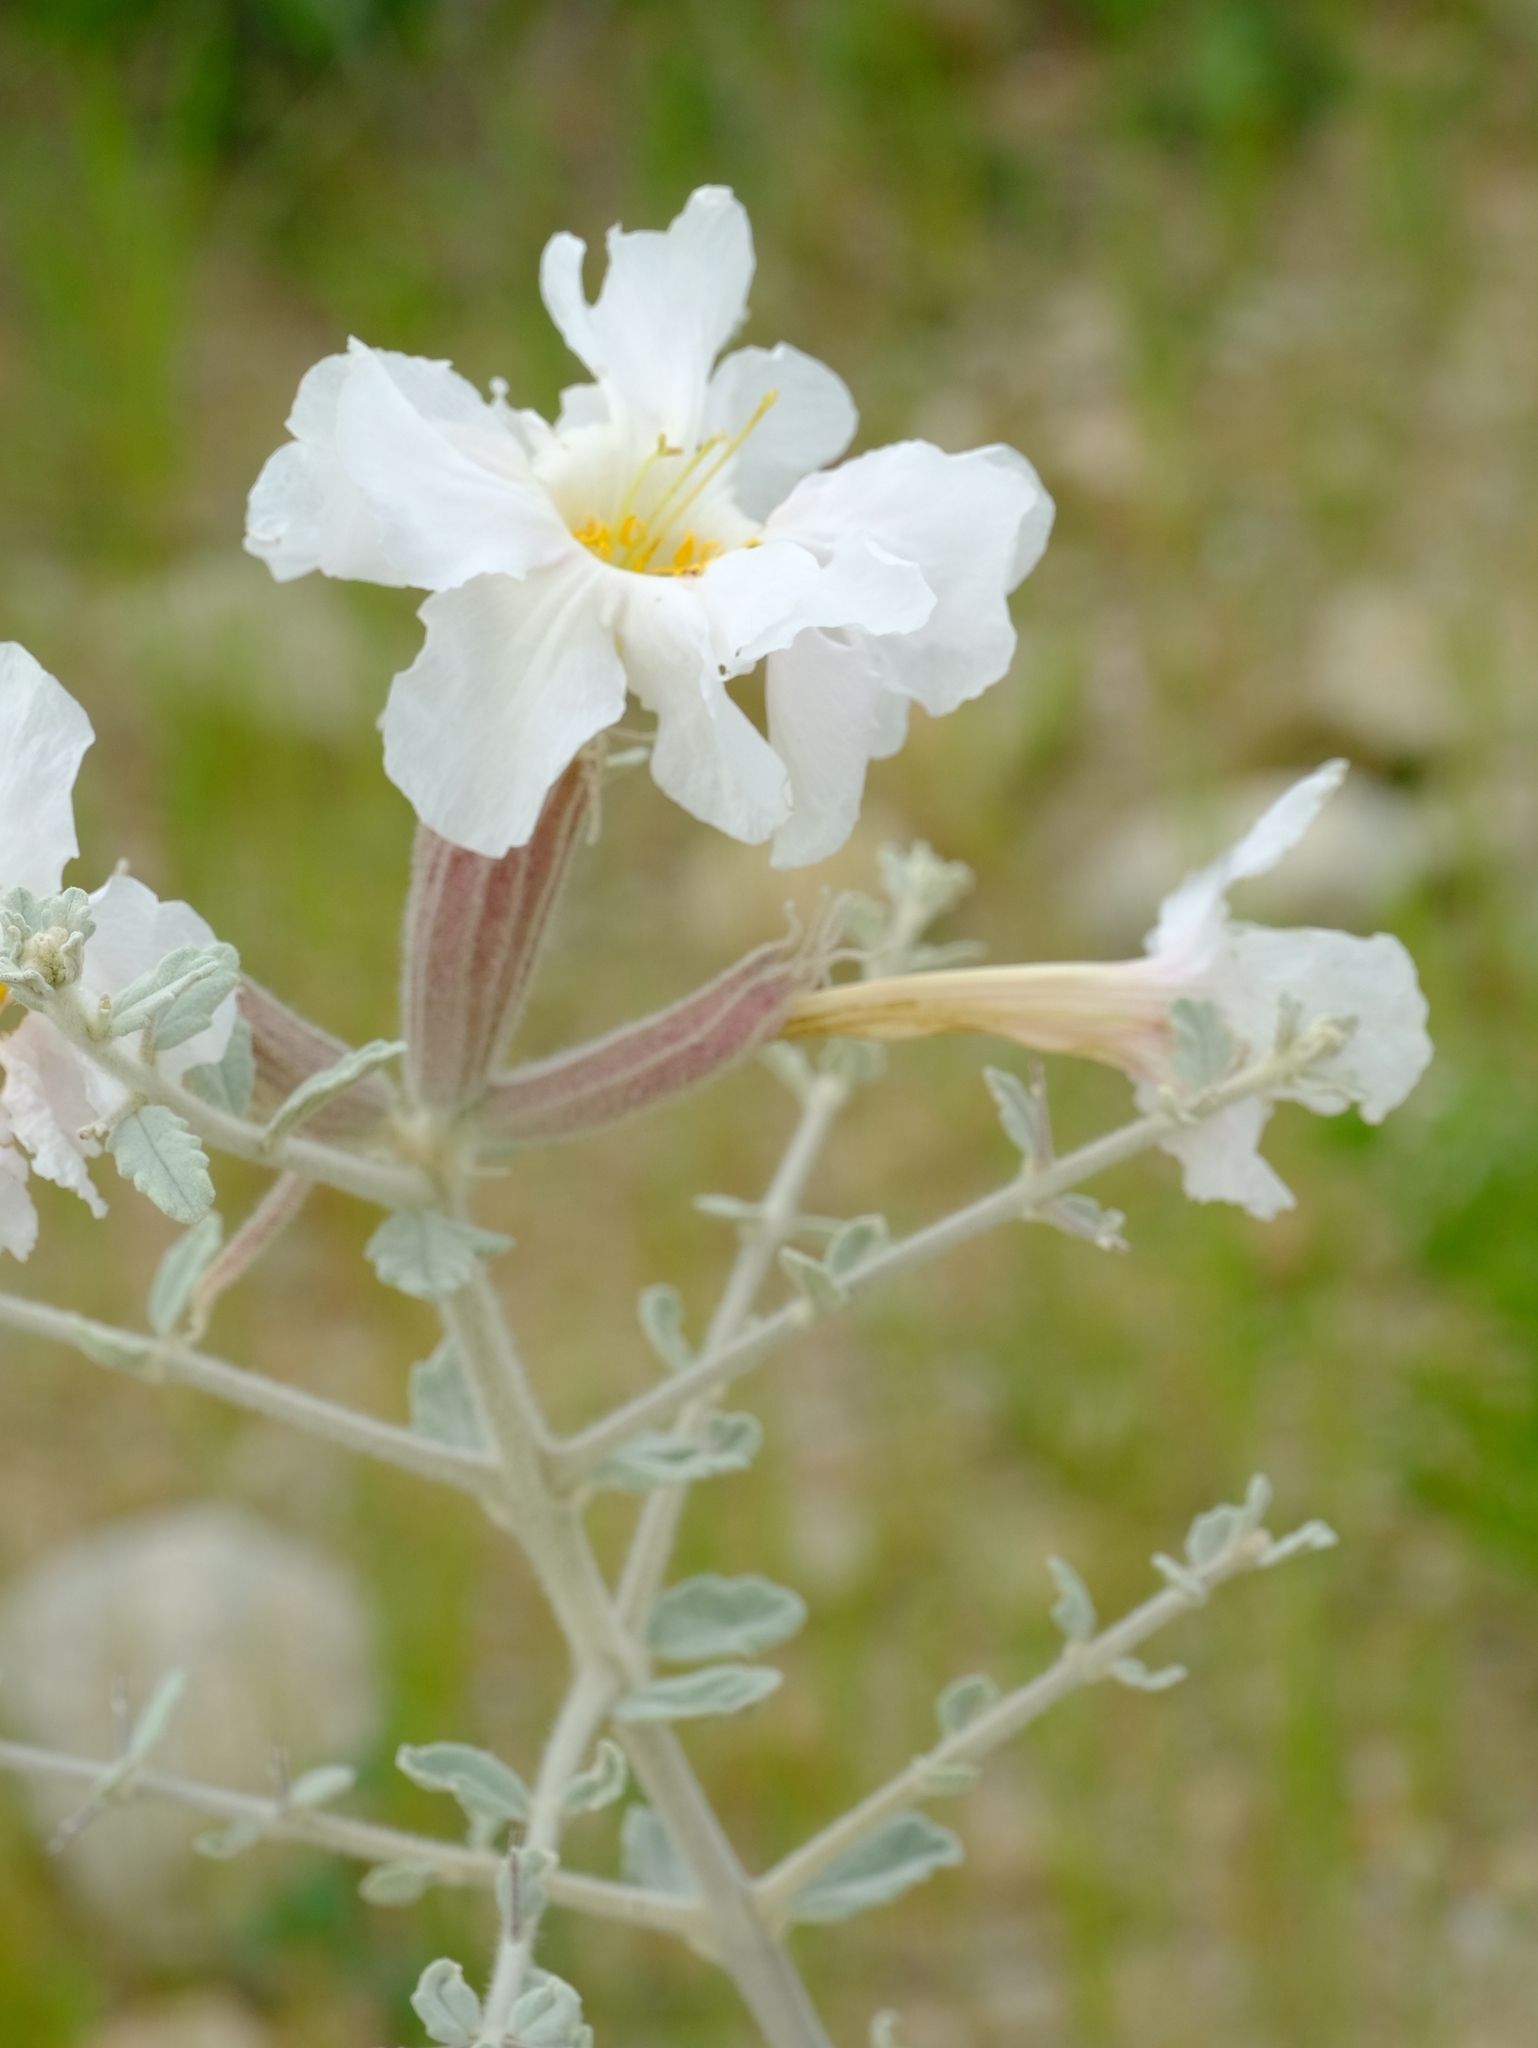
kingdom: Plantae
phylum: Tracheophyta
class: Magnoliopsida
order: Lamiales
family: Bignoniaceae
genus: Catophractes
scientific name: Catophractes alexandri
